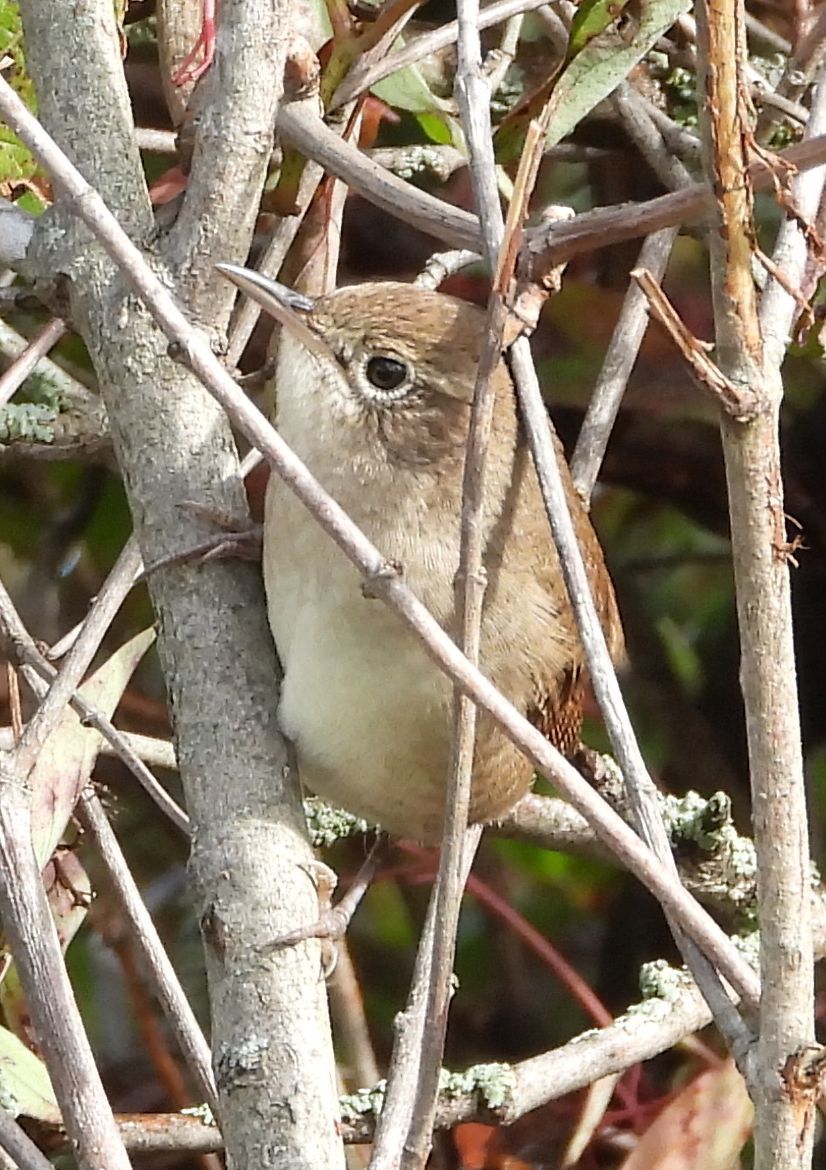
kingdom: Animalia
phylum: Chordata
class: Aves
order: Passeriformes
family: Troglodytidae
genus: Troglodytes
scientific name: Troglodytes aedon
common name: House wren
